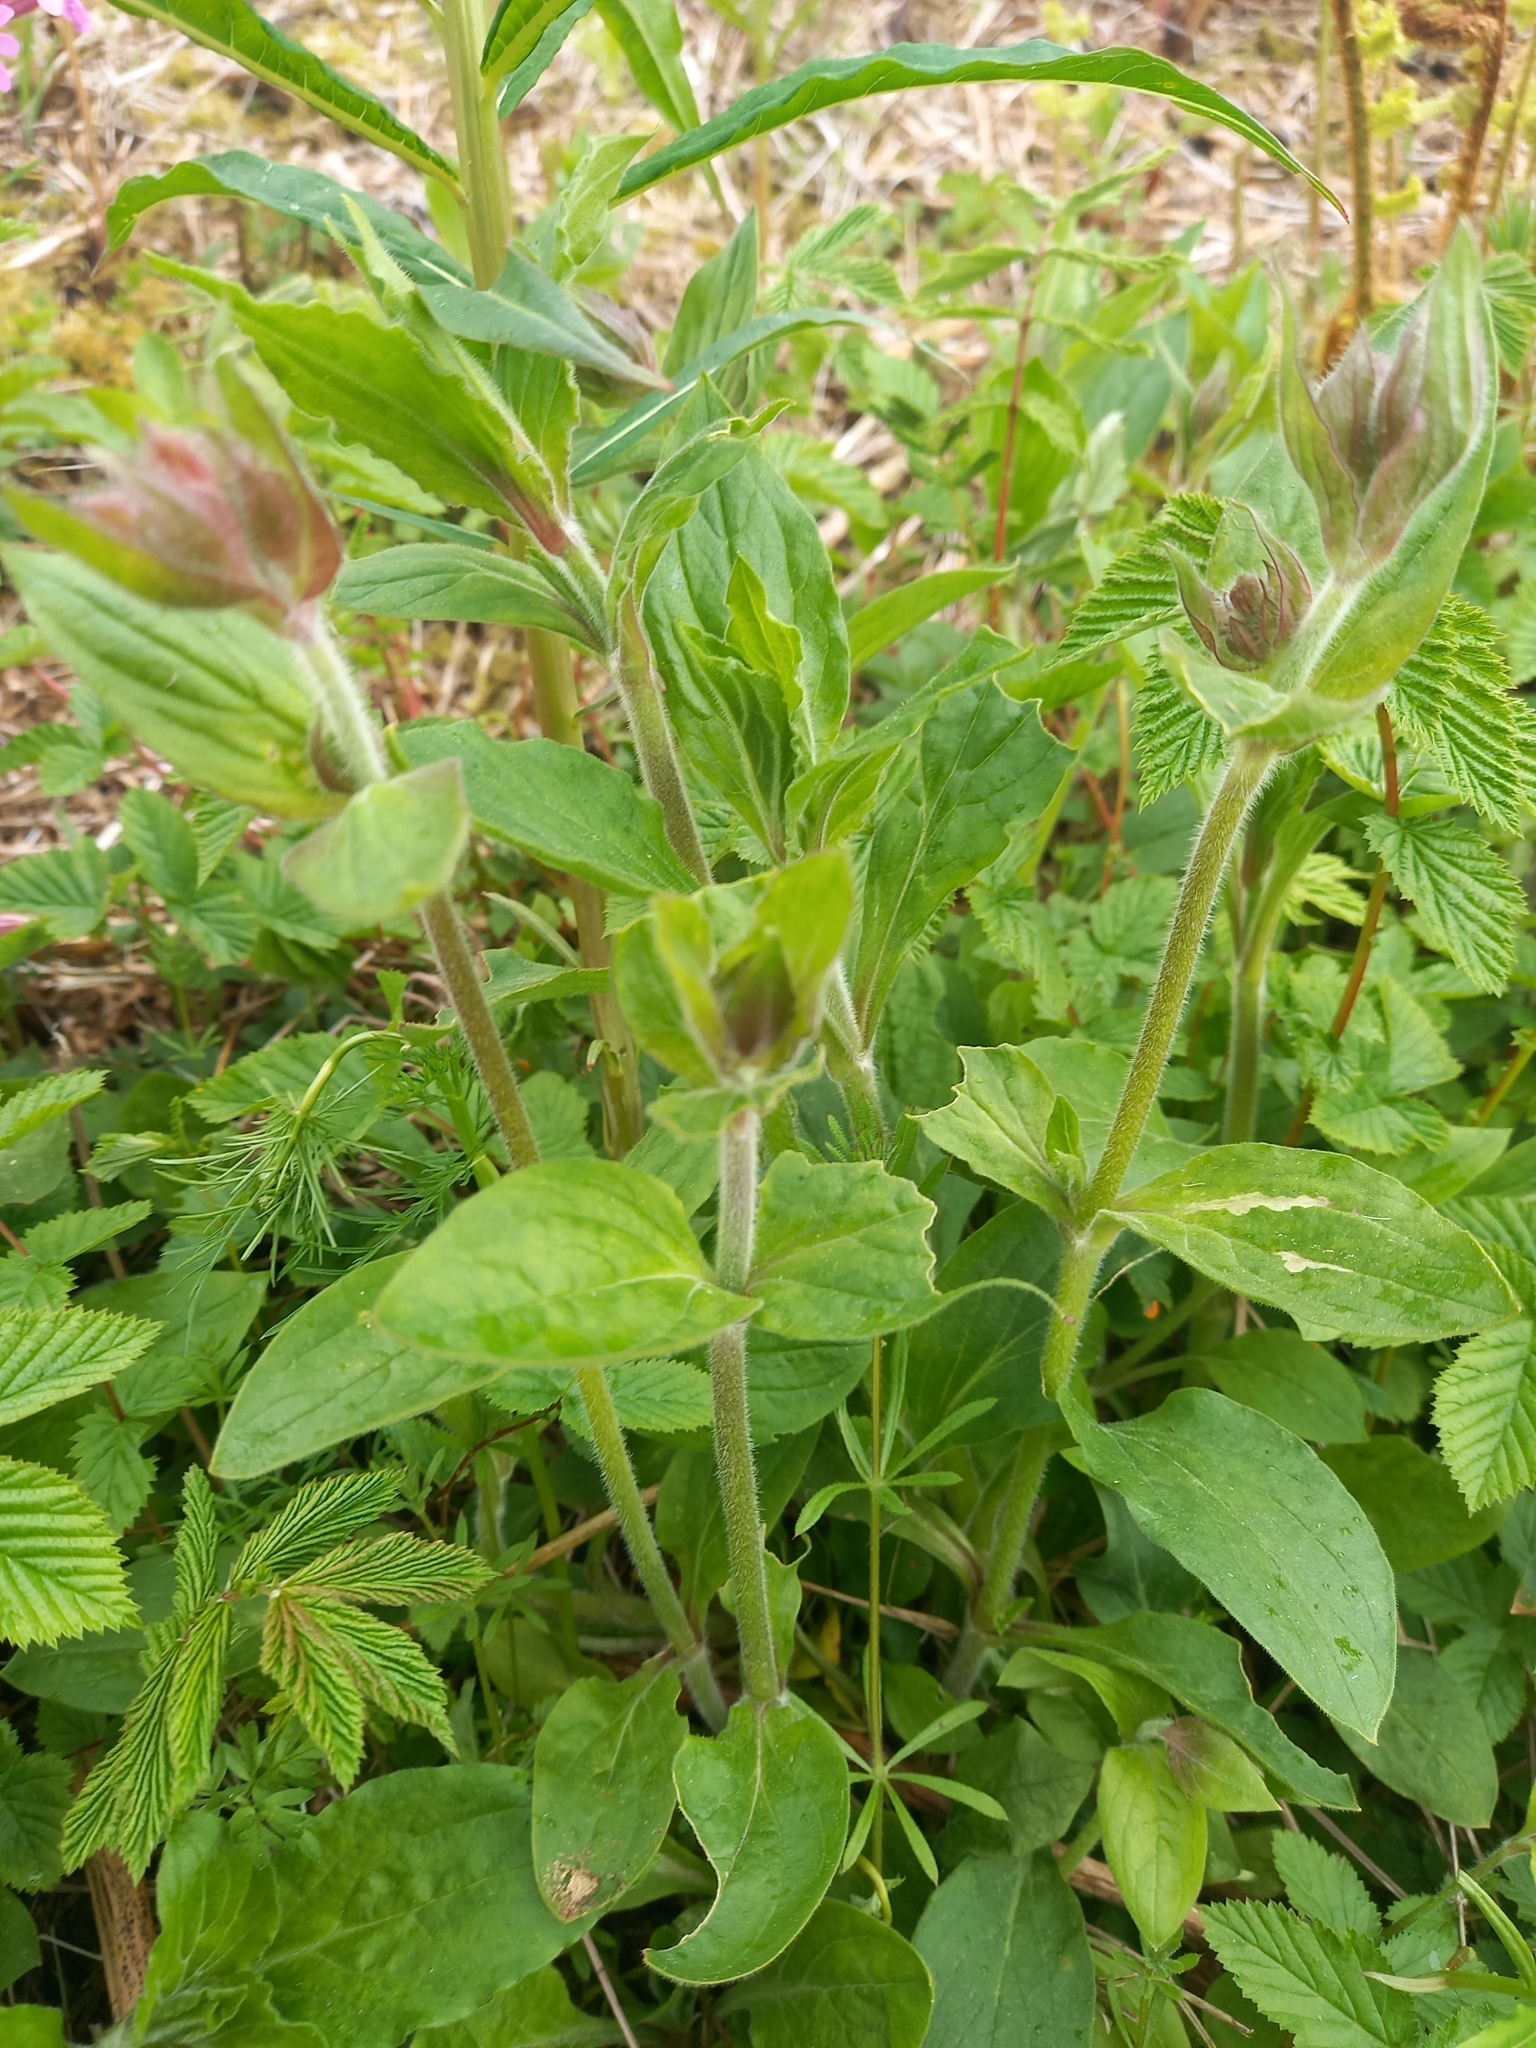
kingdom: Plantae
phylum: Tracheophyta
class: Magnoliopsida
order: Caryophyllales
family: Caryophyllaceae
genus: Silene
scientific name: Silene dioica
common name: Red campion
